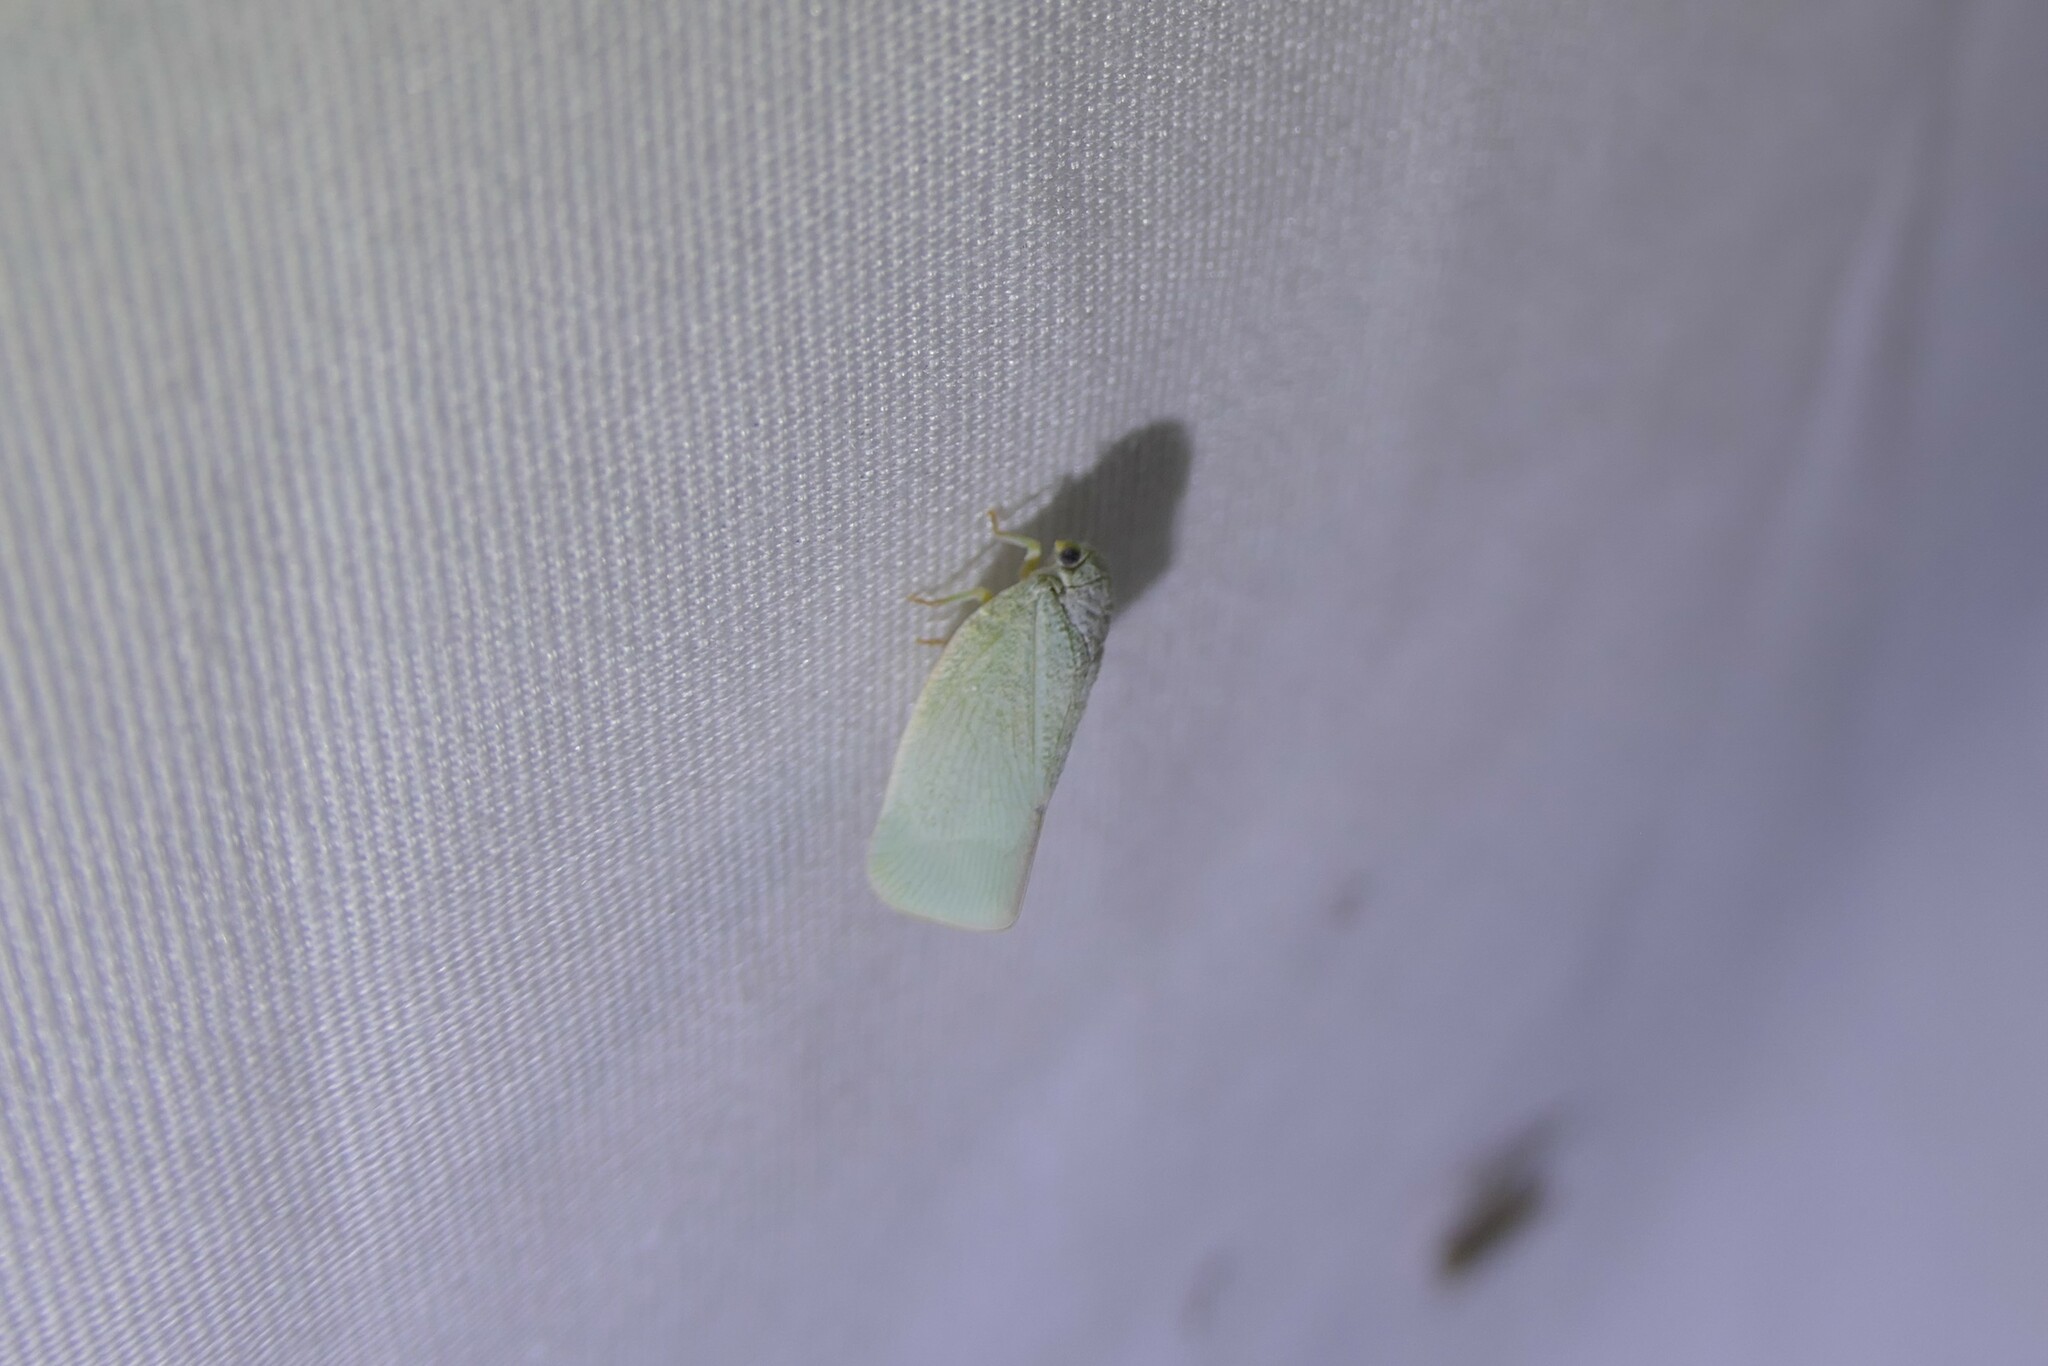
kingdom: Animalia
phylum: Arthropoda
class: Insecta
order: Hemiptera
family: Flatidae
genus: Flatormenis
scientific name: Flatormenis proxima
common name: Northern flatid planthopper
